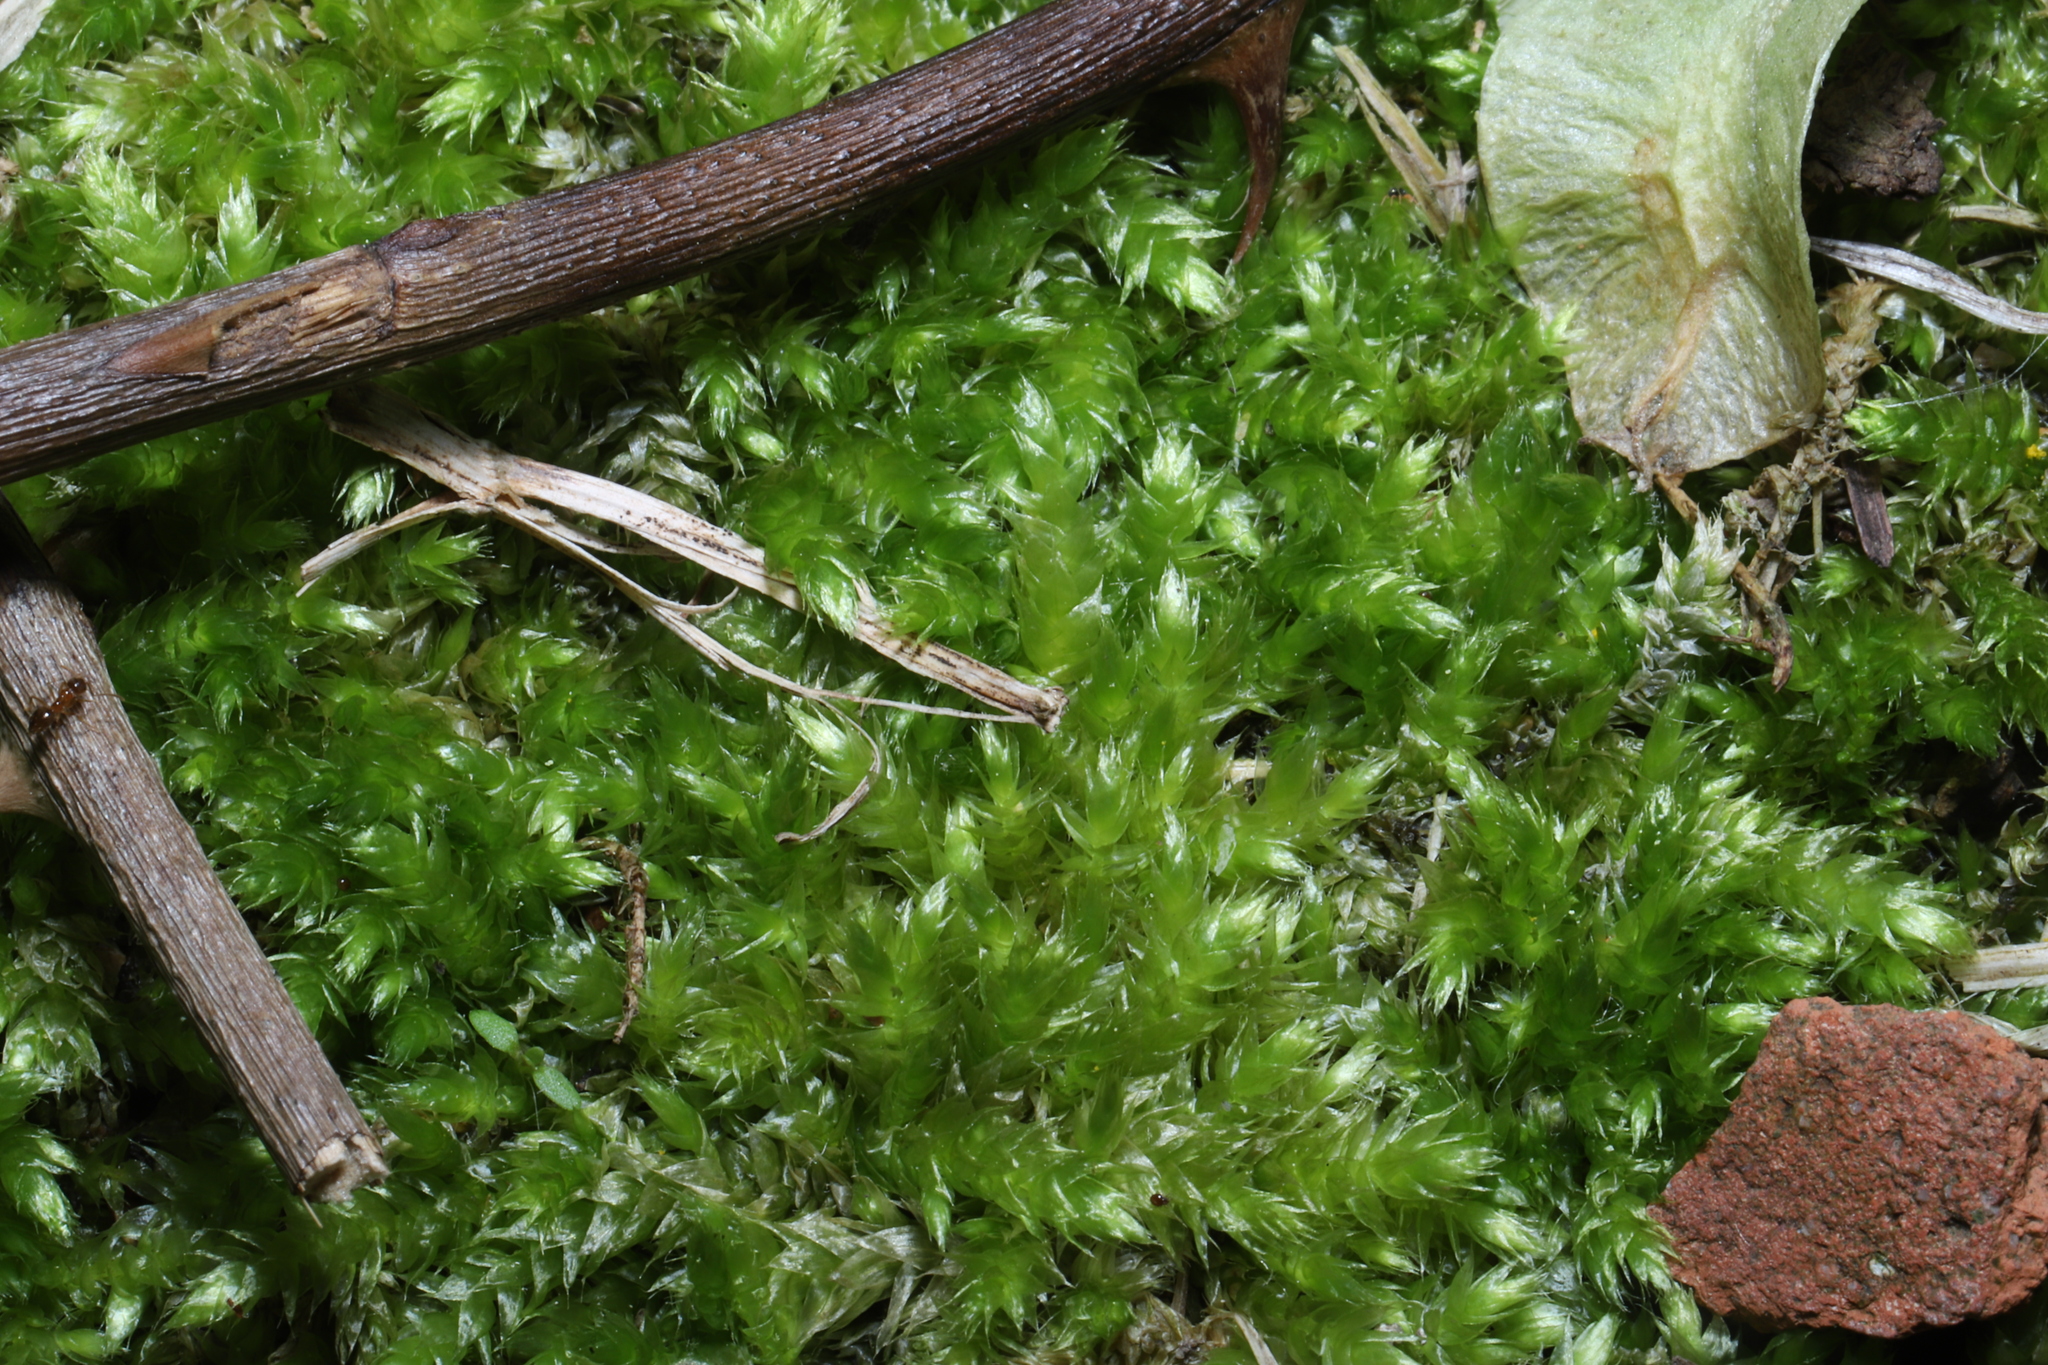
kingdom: Plantae
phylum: Bryophyta
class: Bryopsida
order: Hypnales
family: Callicladiaceae
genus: Callicladium
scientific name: Callicladium haldanianum
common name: Beautiful branch moss
